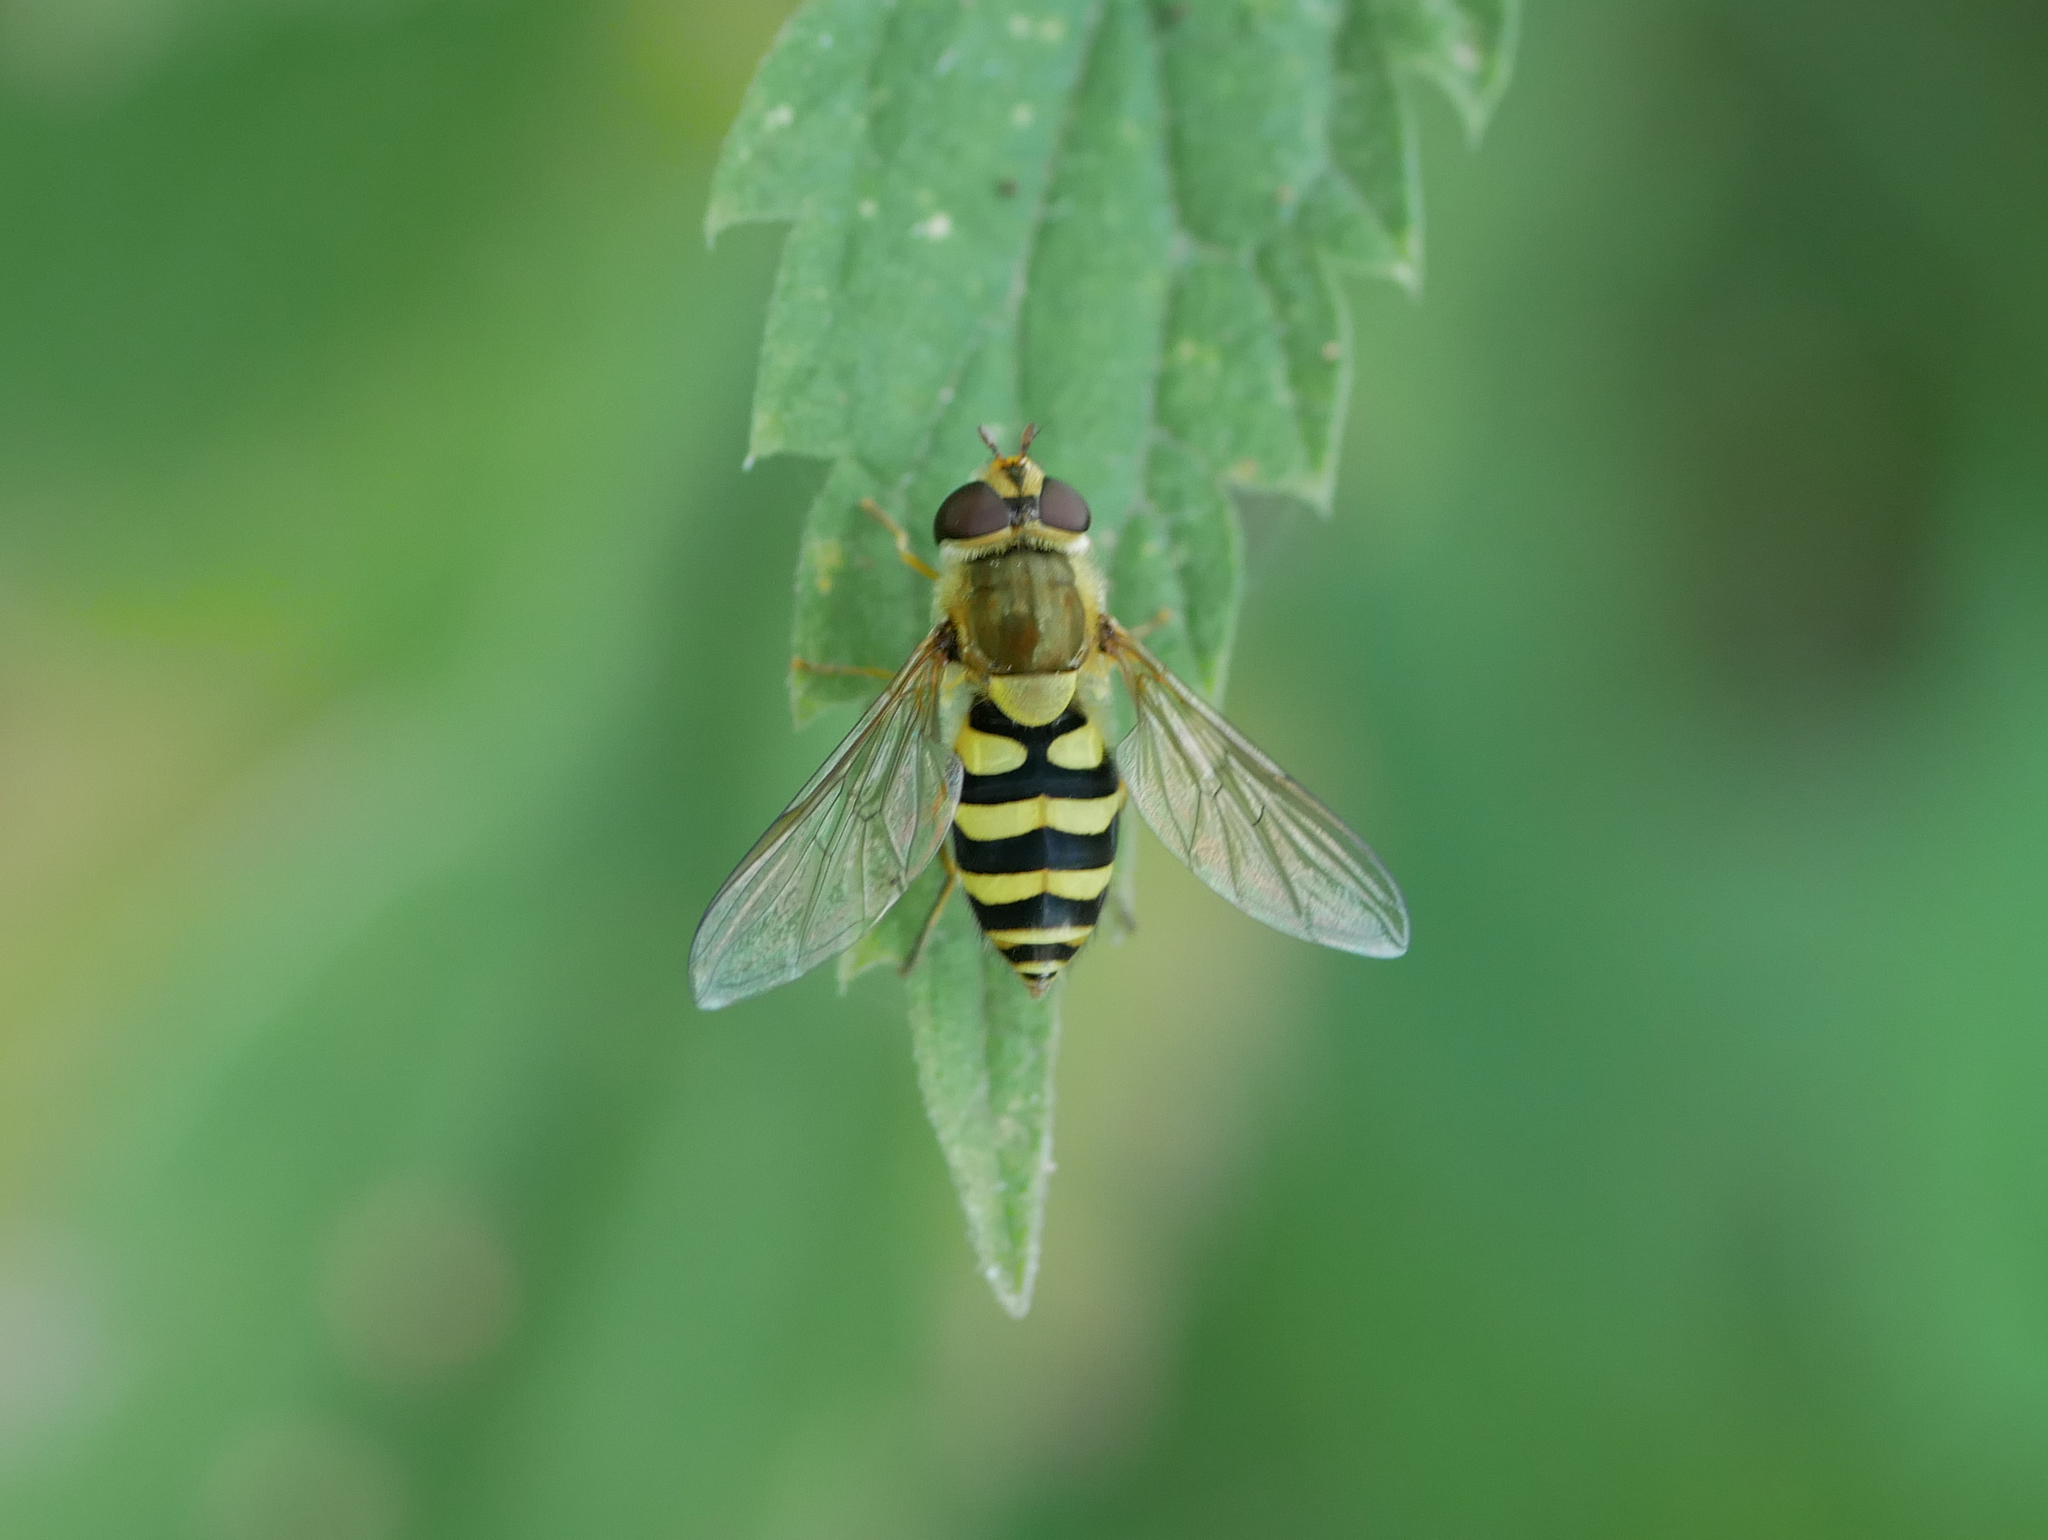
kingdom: Animalia
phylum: Arthropoda
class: Insecta
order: Diptera
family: Syrphidae
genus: Syrphus
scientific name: Syrphus
